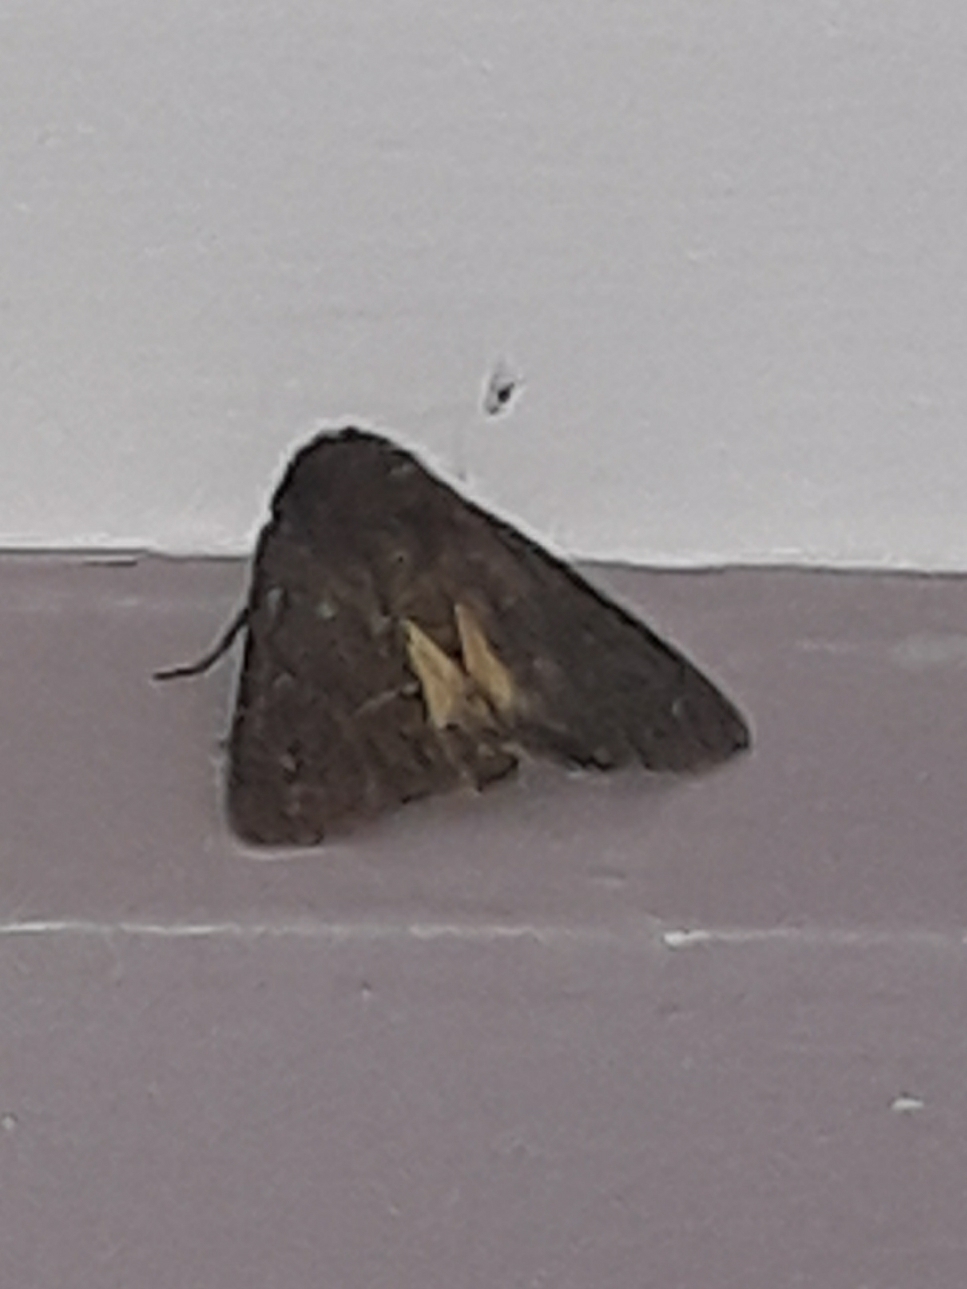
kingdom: Animalia
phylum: Arthropoda
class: Insecta
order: Lepidoptera
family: Noctuidae
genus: Thalpophila
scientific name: Thalpophila matura
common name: Straw underwing
